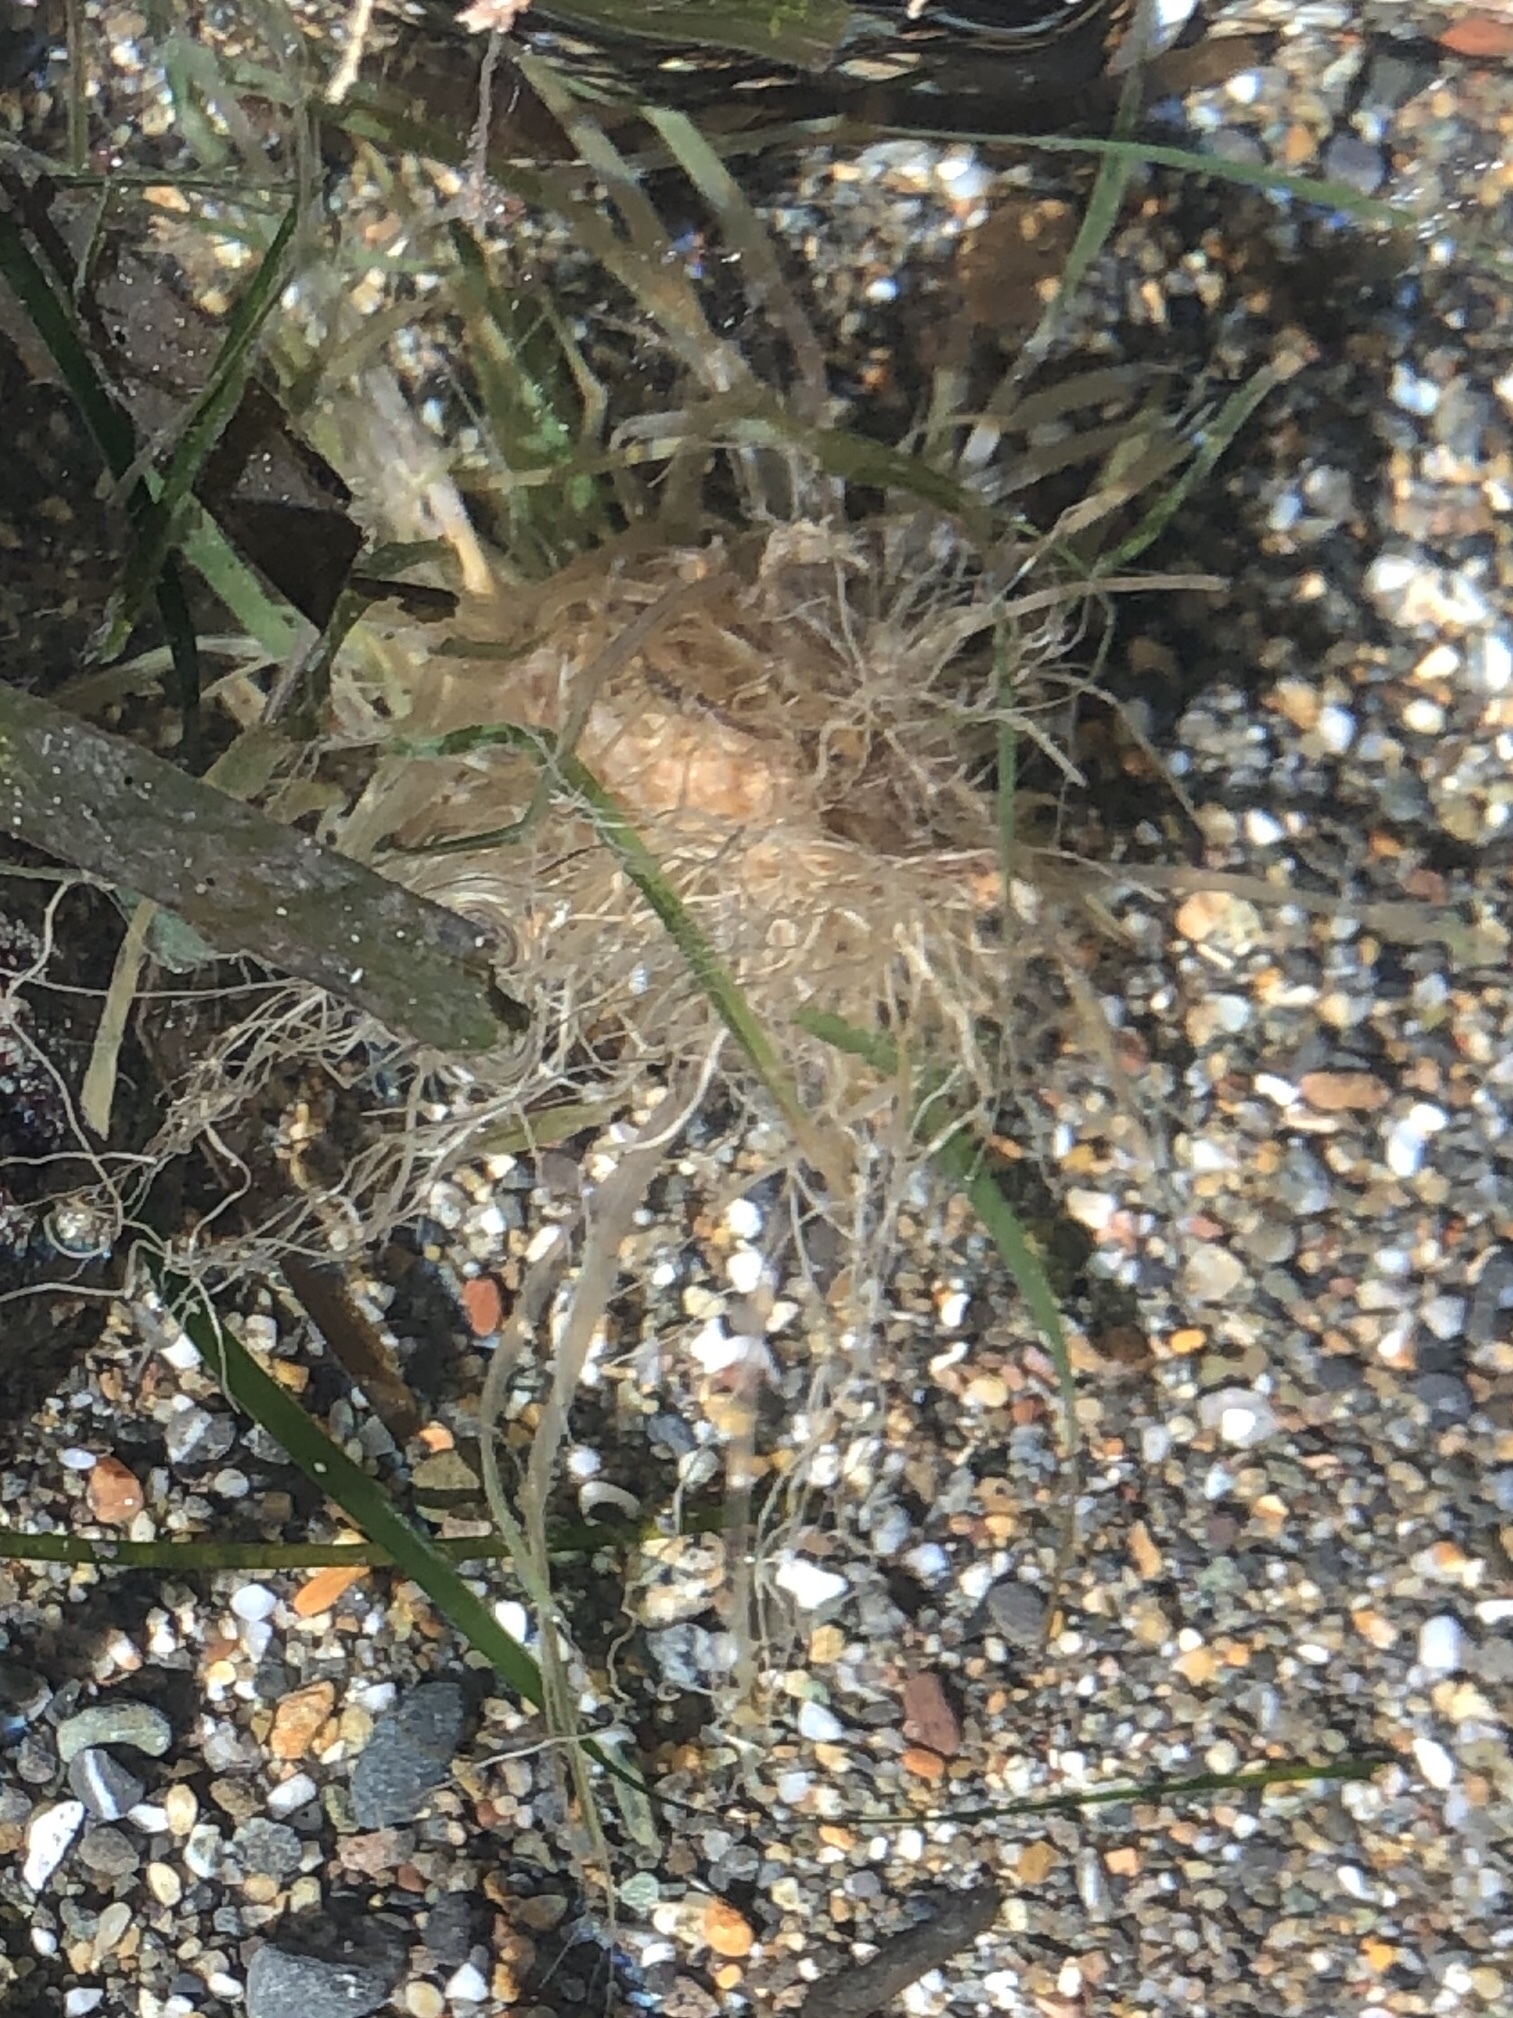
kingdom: Plantae
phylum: Tracheophyta
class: Liliopsida
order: Alismatales
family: Zosteraceae
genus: Phyllospadix
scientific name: Phyllospadix scouleri
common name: Species code: ps
